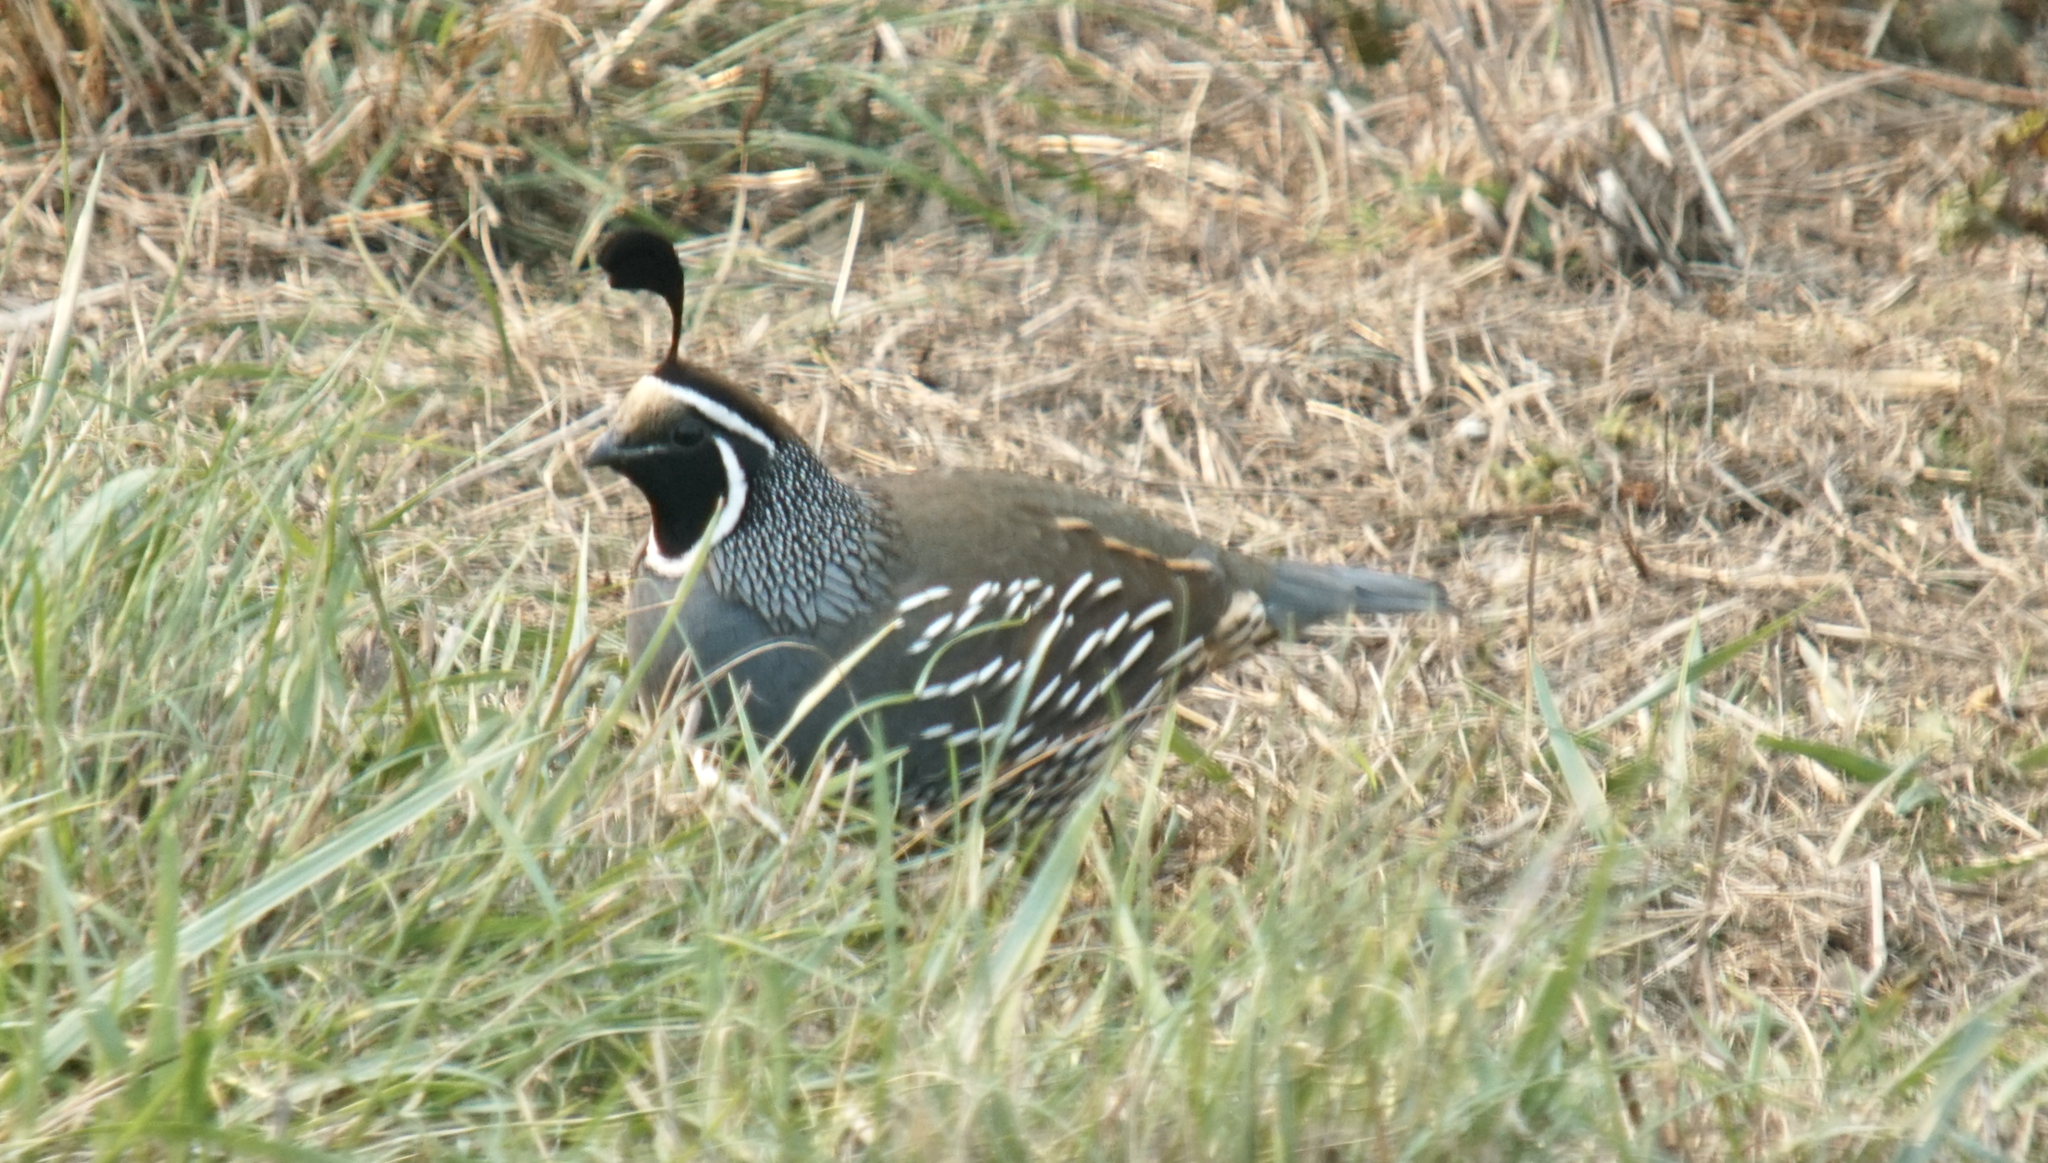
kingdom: Animalia
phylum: Chordata
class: Aves
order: Galliformes
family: Odontophoridae
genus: Callipepla
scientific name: Callipepla californica
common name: California quail
